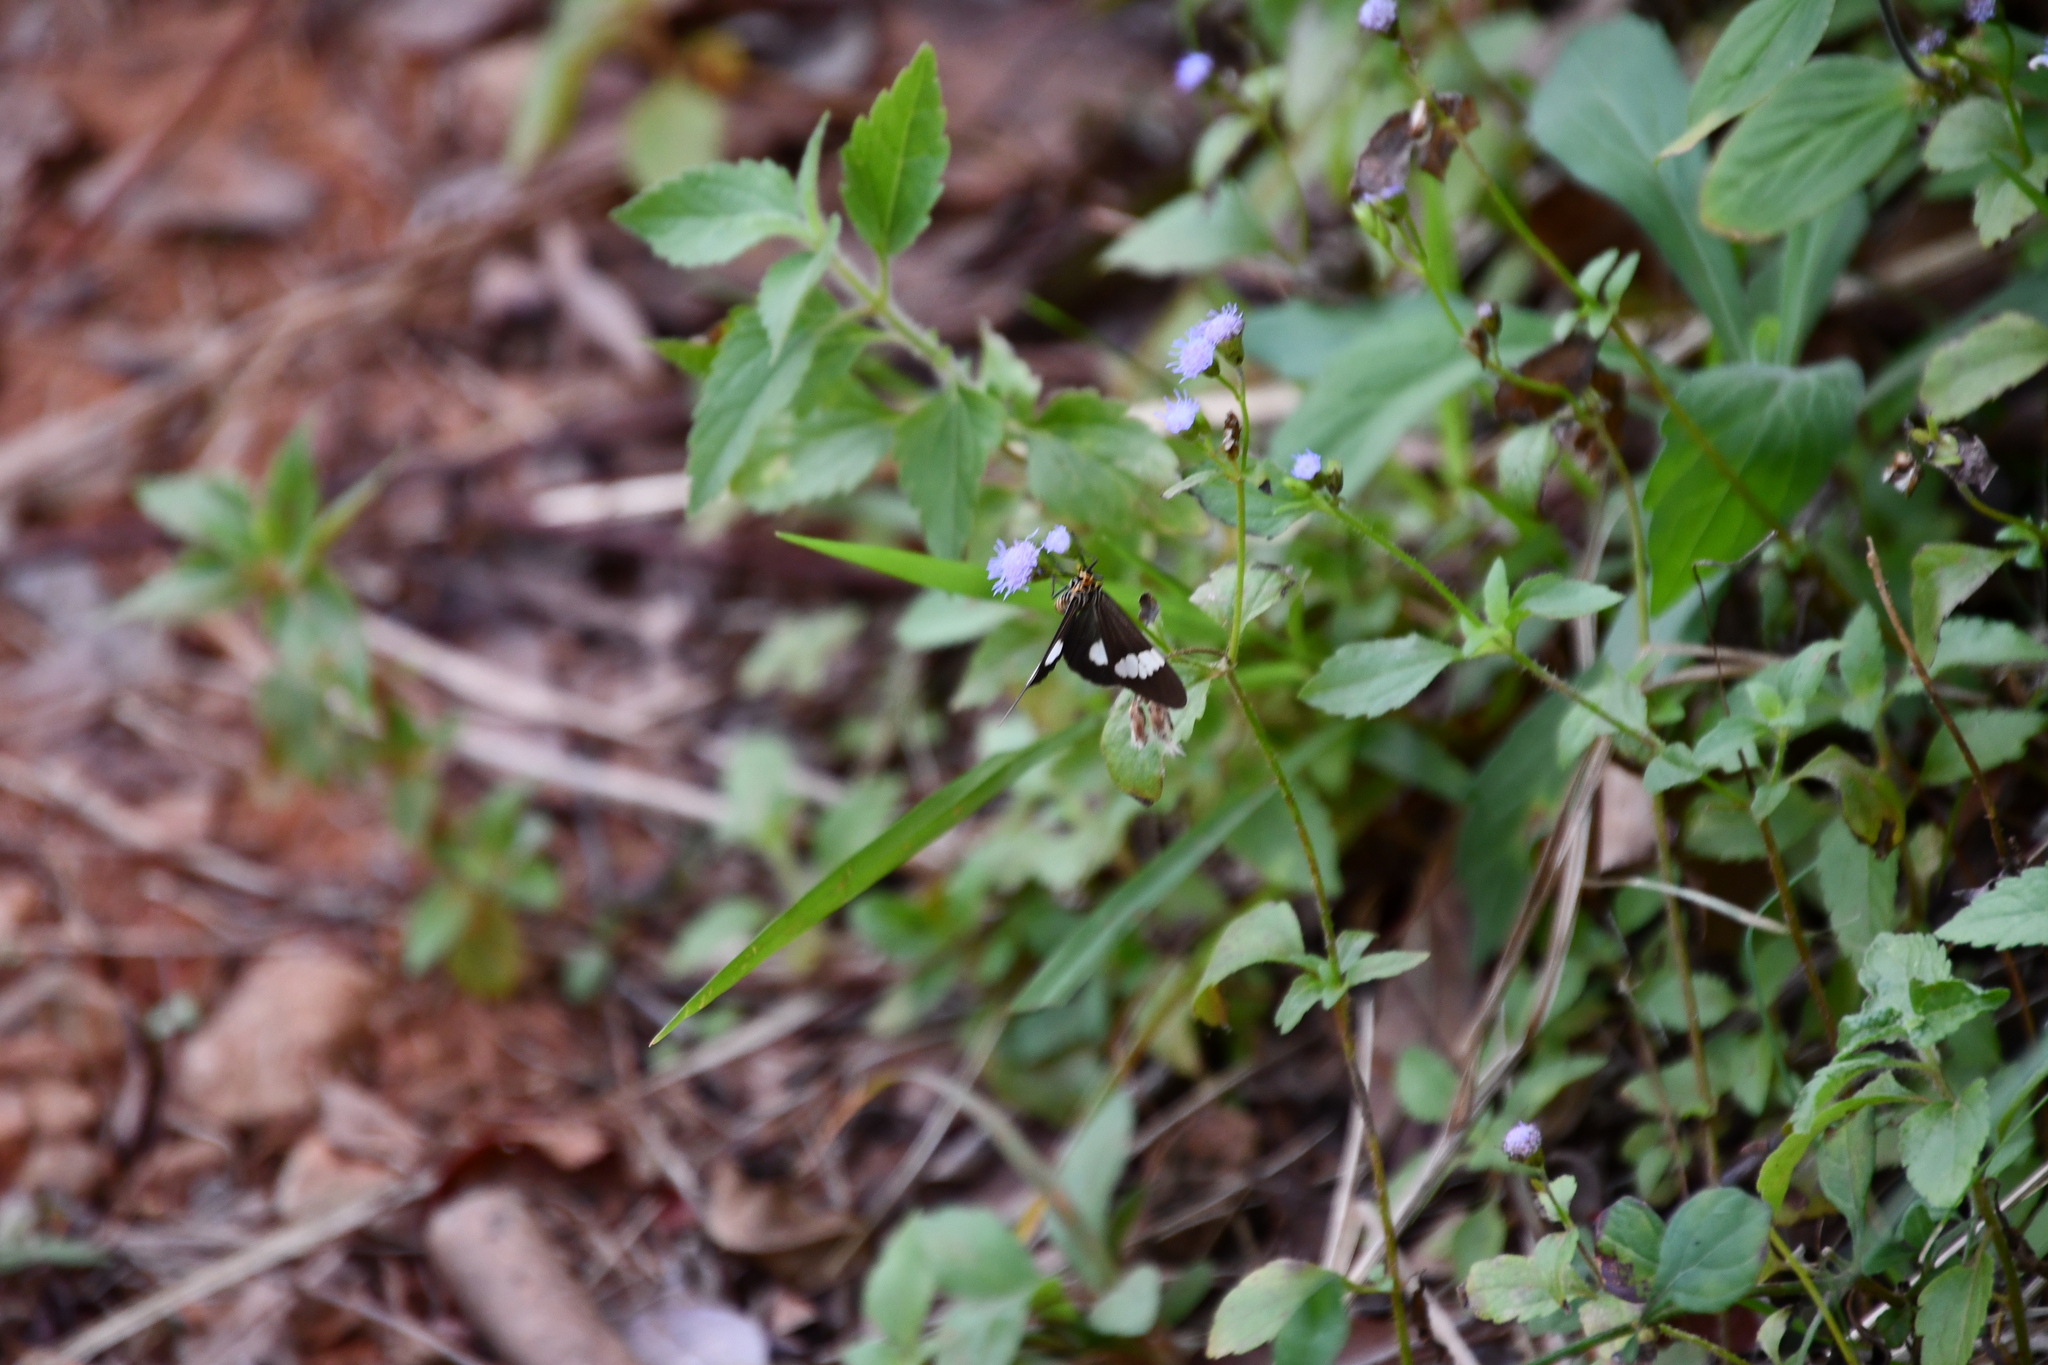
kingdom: Animalia
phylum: Arthropoda
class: Insecta
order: Lepidoptera
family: Erebidae
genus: Nyctemera
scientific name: Nyctemera baulus
